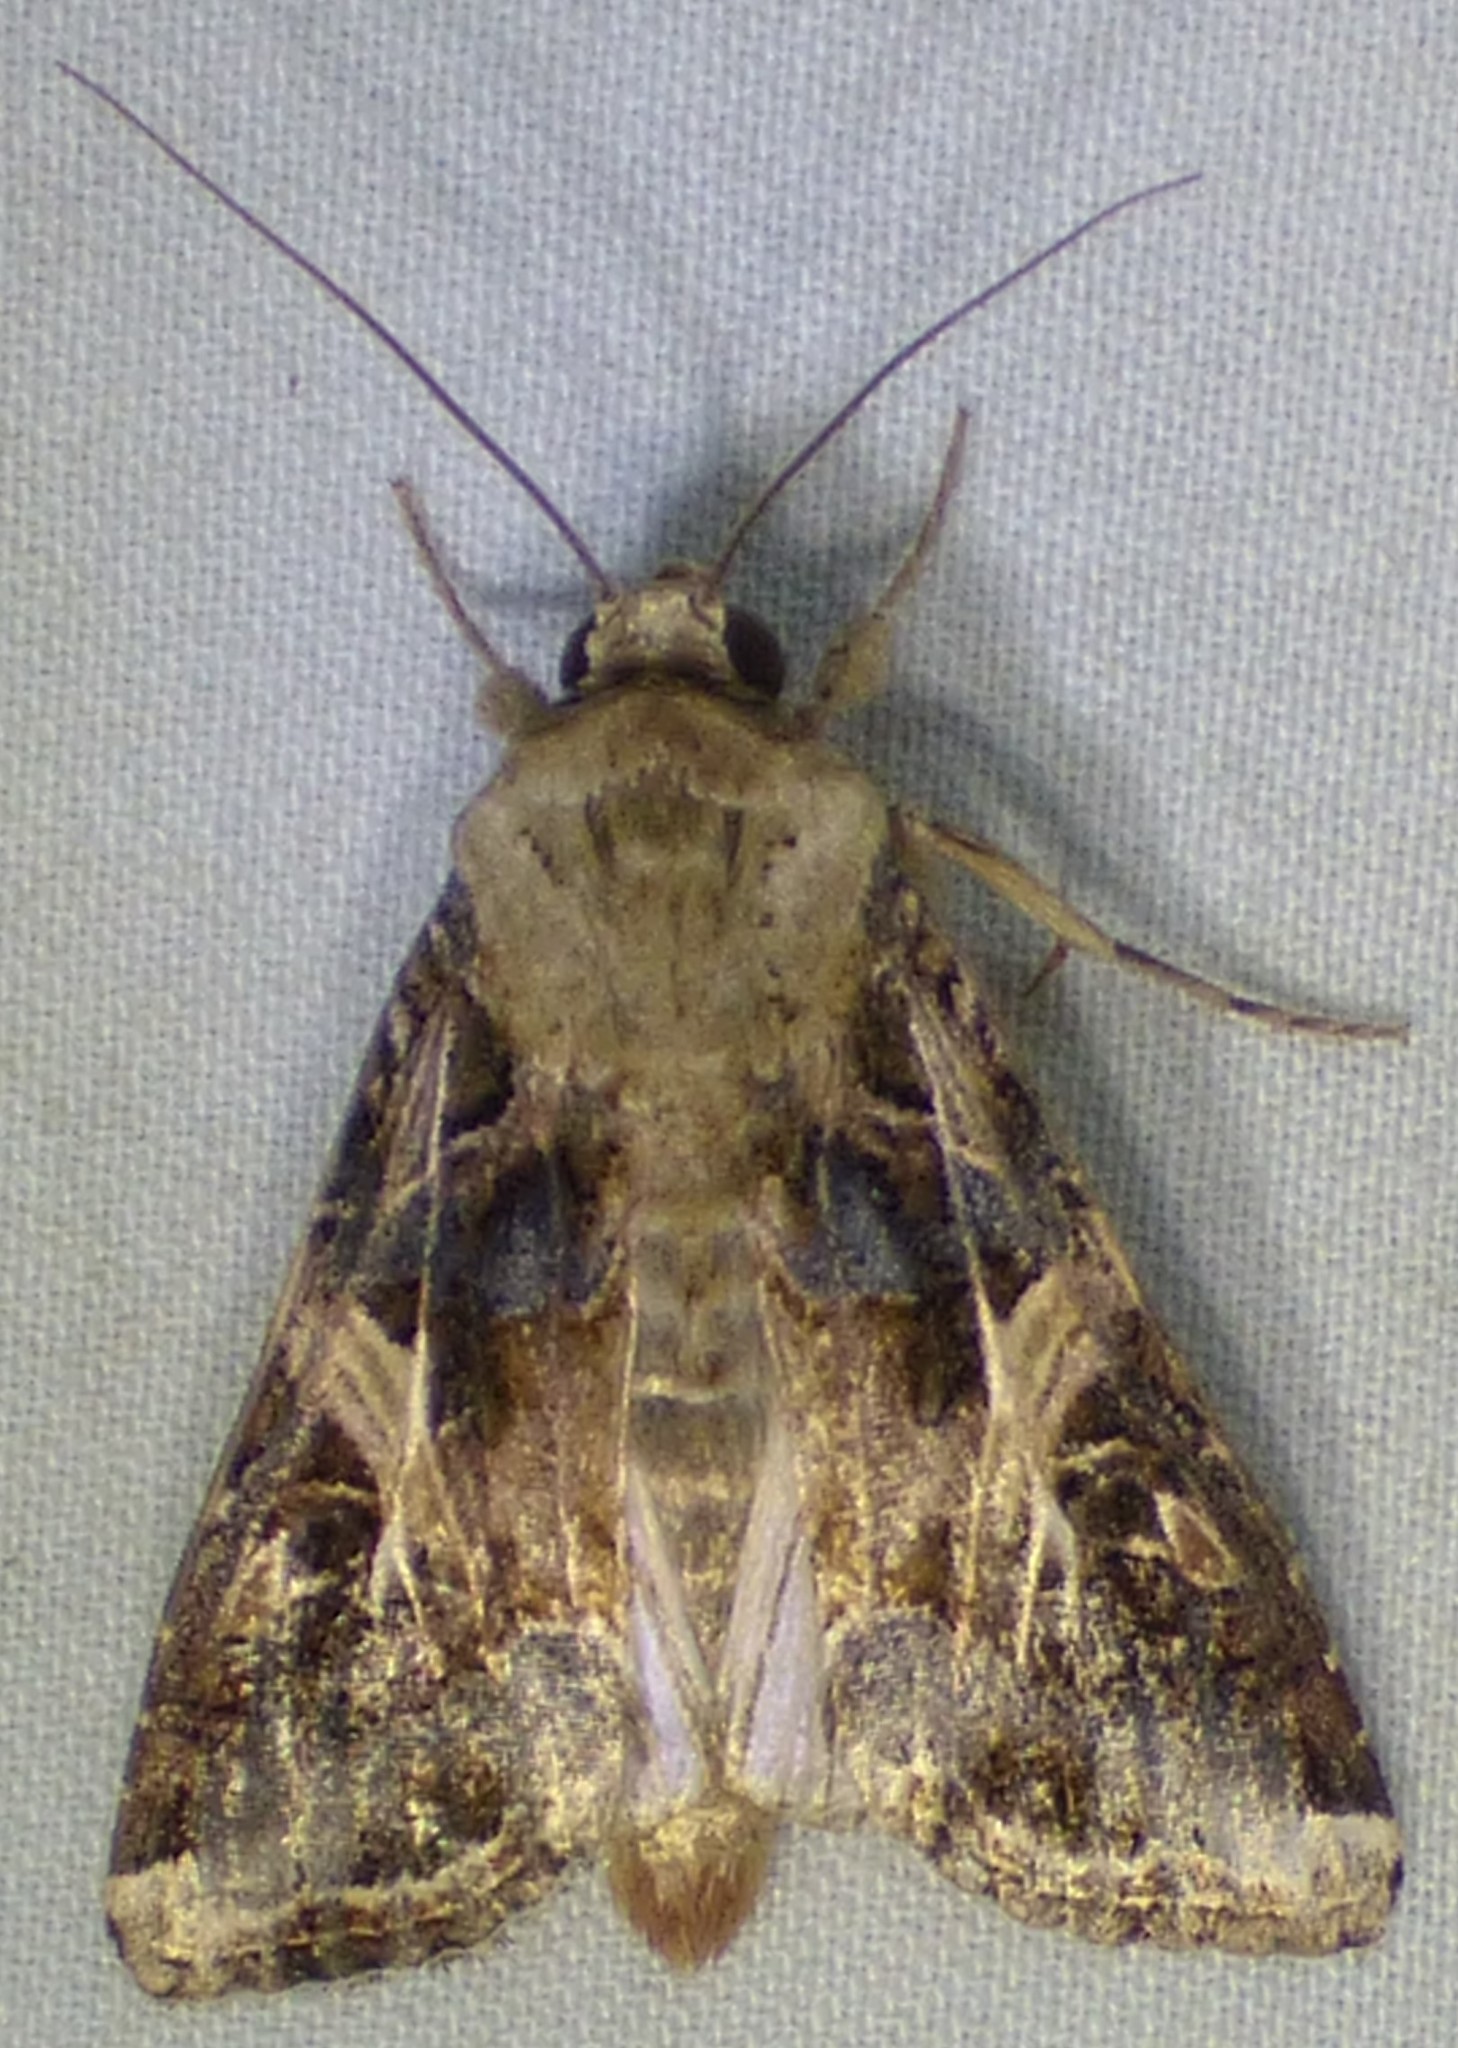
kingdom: Animalia
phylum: Arthropoda
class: Insecta
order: Lepidoptera
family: Noctuidae
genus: Spodoptera
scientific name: Spodoptera ornithogalli
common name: Yellow-striped armyworm
